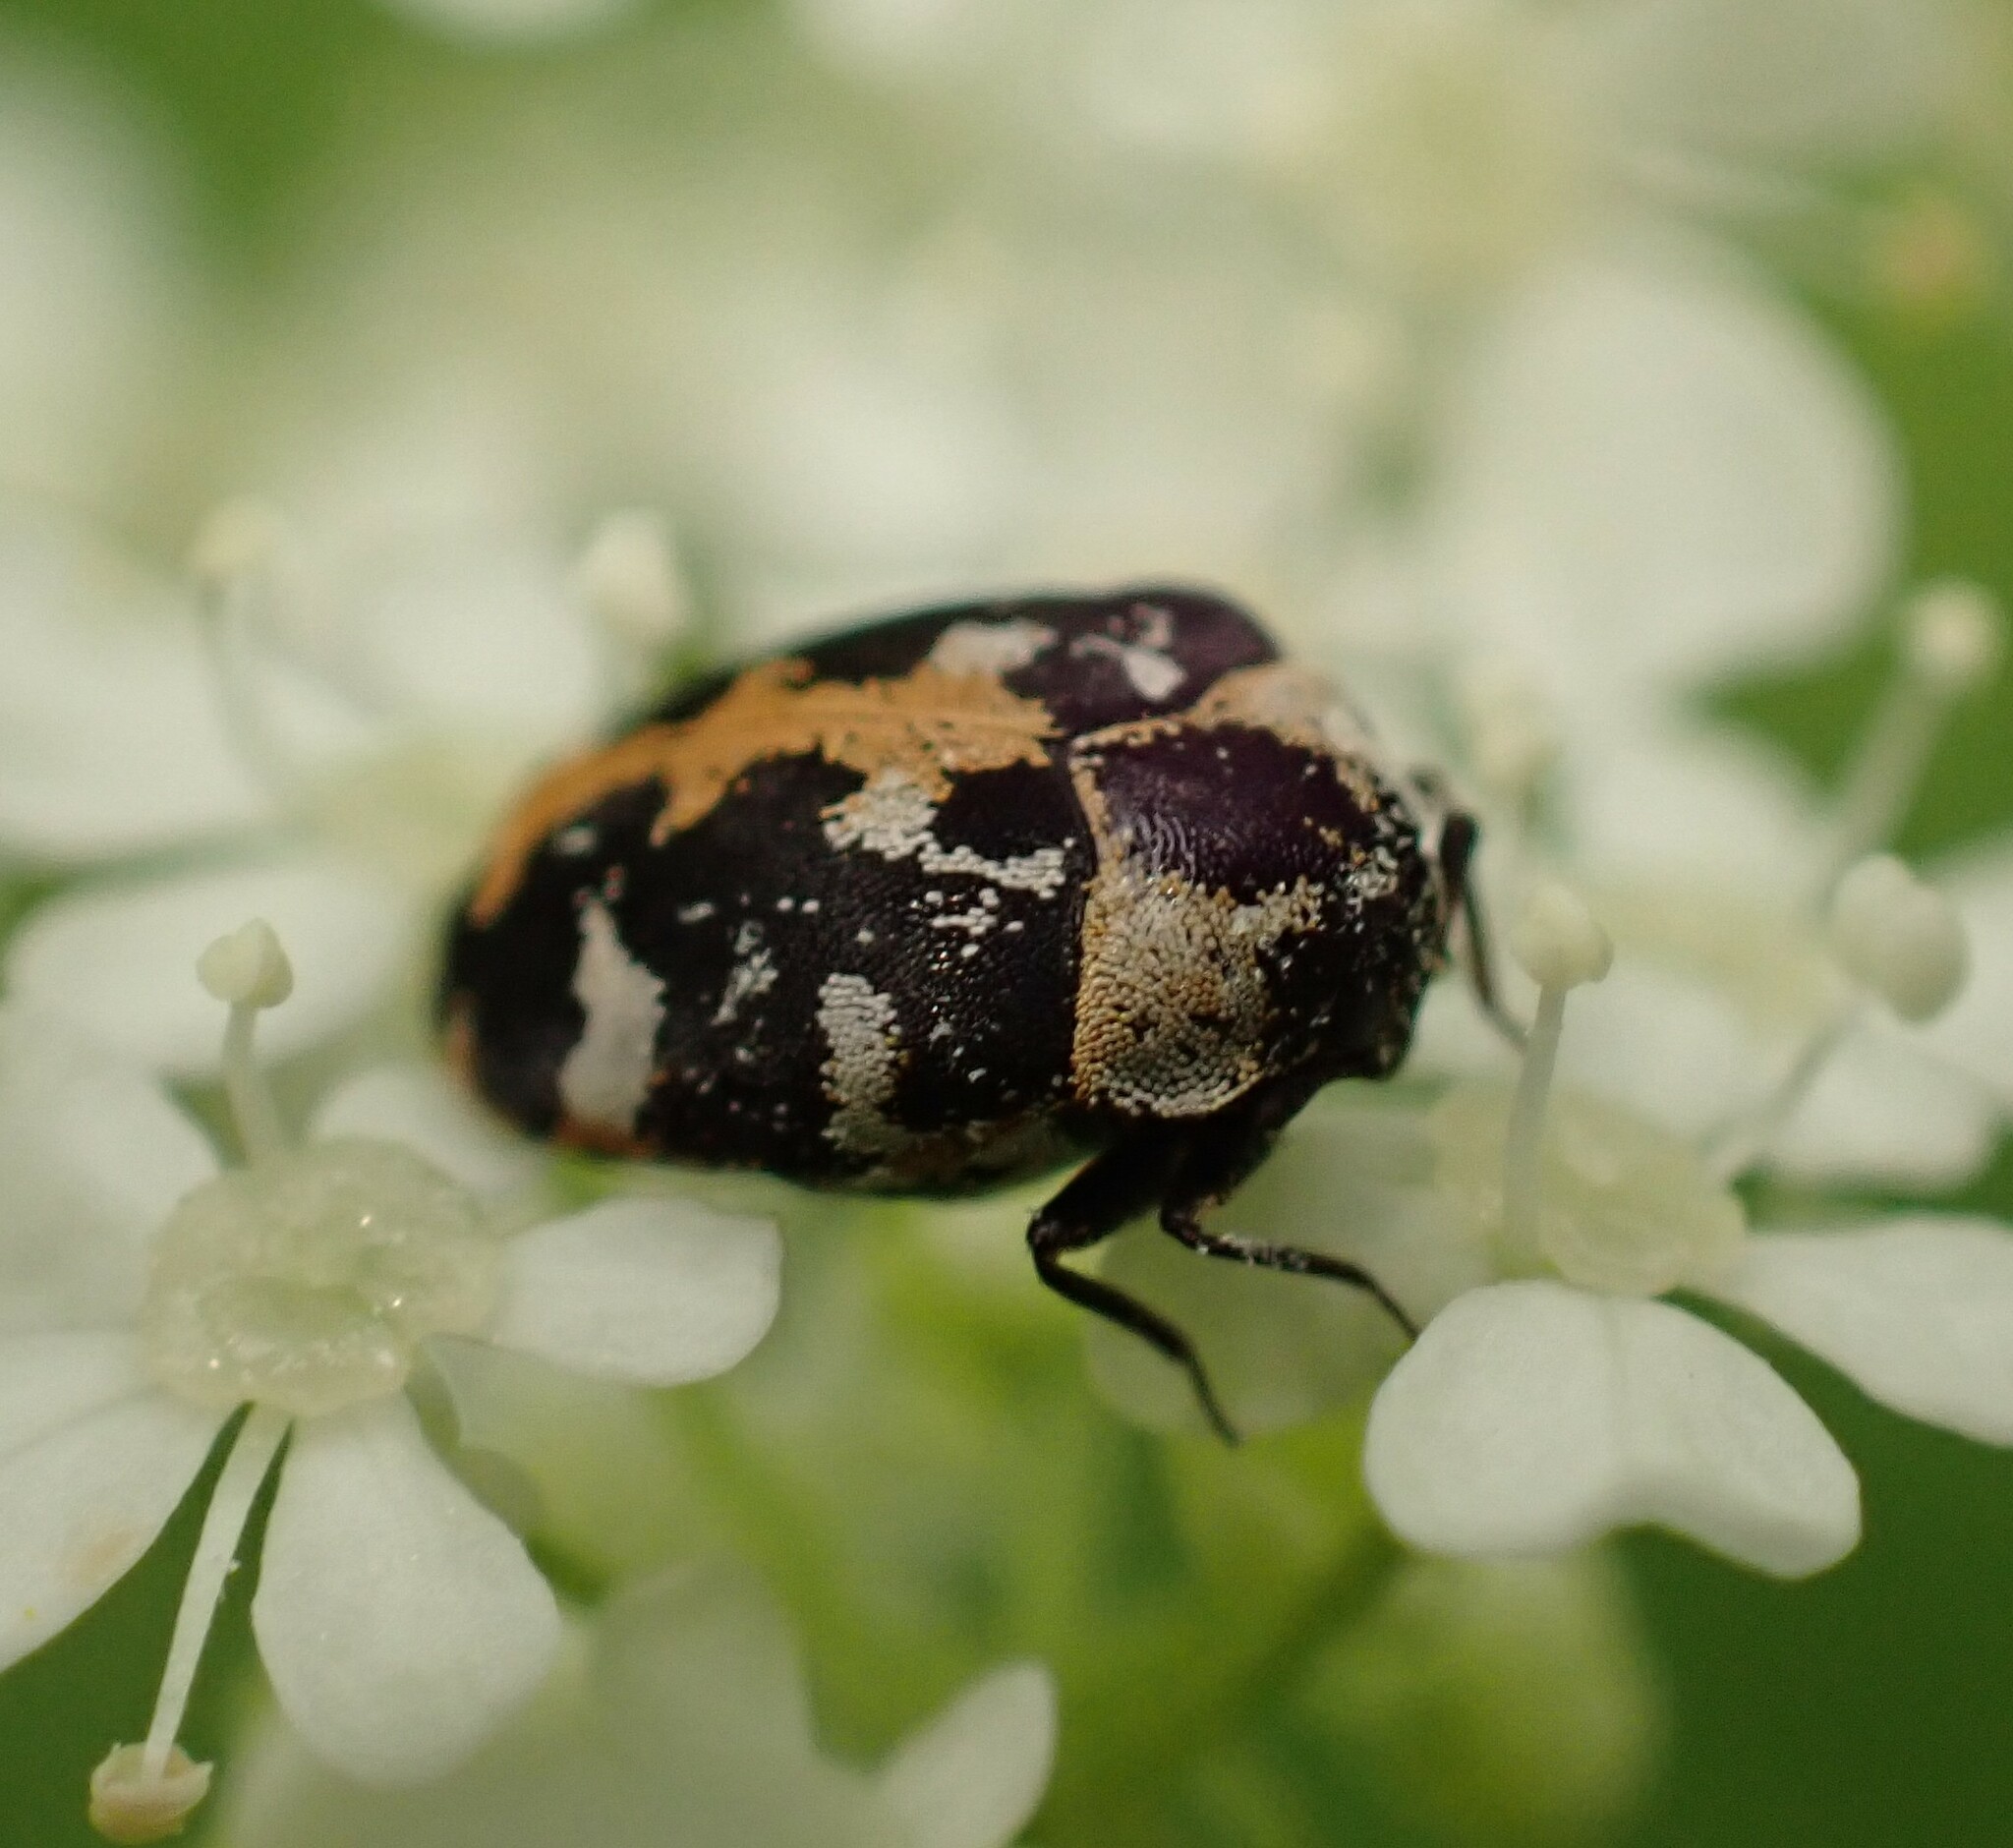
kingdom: Animalia
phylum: Arthropoda
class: Insecta
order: Coleoptera
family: Dermestidae
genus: Anthrenus
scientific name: Anthrenus scrophulariae
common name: Buffalo carpet beetle
